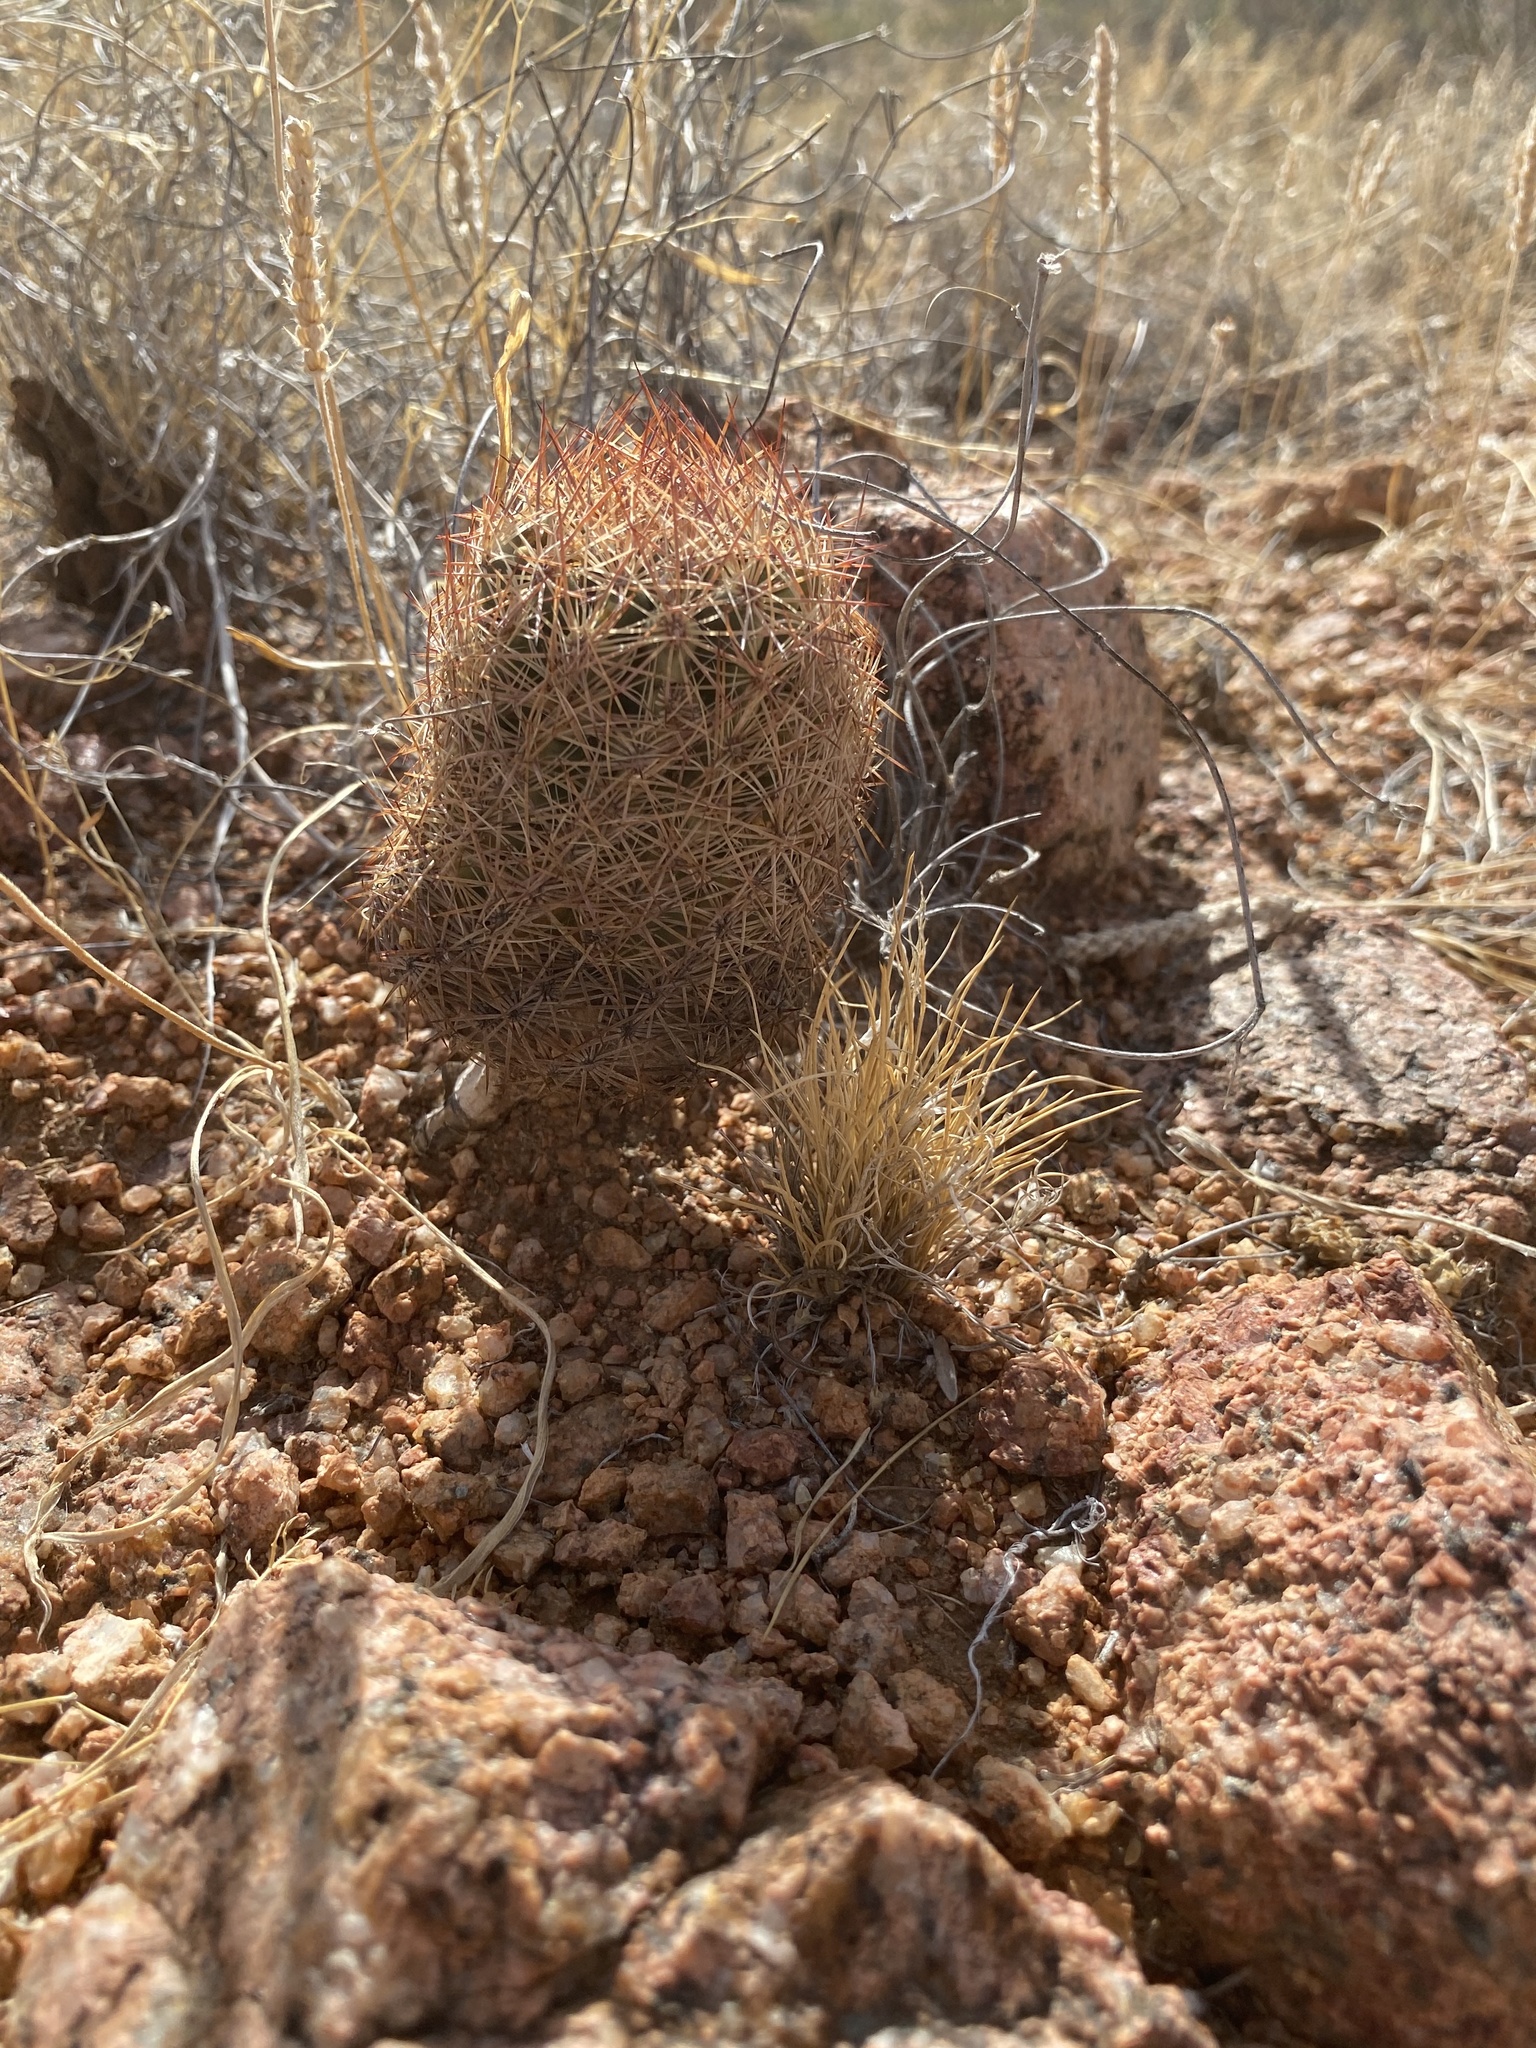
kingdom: Plantae
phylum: Tracheophyta
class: Magnoliopsida
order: Caryophyllales
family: Cactaceae
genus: Sclerocactus
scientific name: Sclerocactus intertextus
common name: White fish-hook cactus
